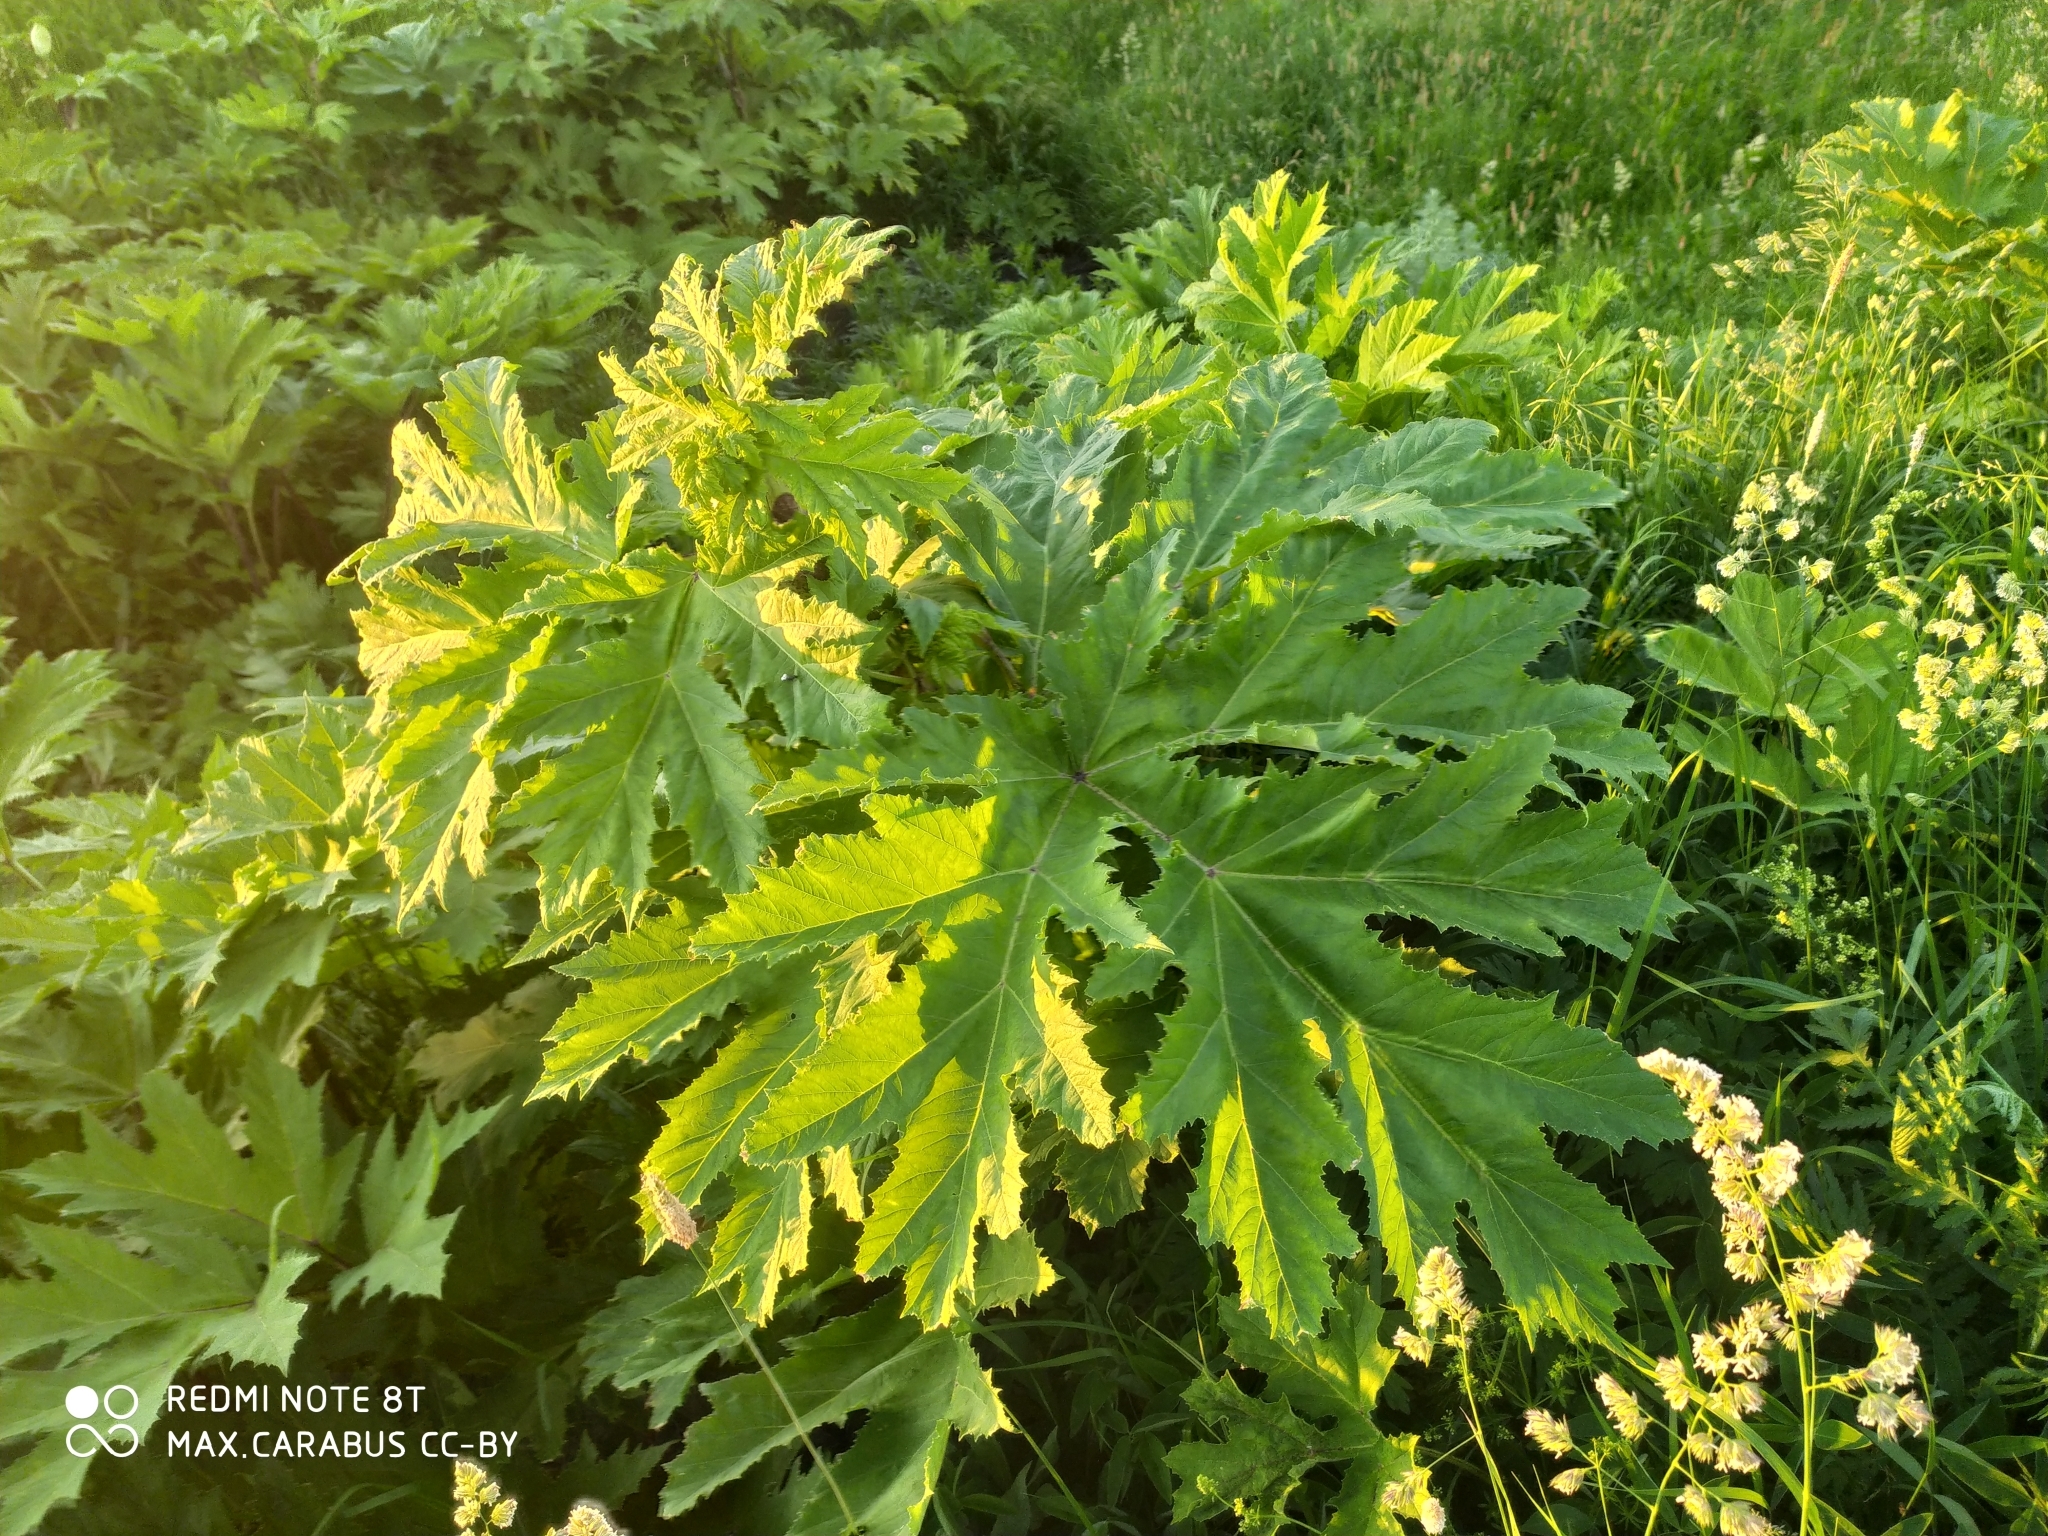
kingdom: Plantae
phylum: Tracheophyta
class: Magnoliopsida
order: Apiales
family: Apiaceae
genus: Heracleum
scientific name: Heracleum sosnowskyi
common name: Sosnowsky's hogweed
